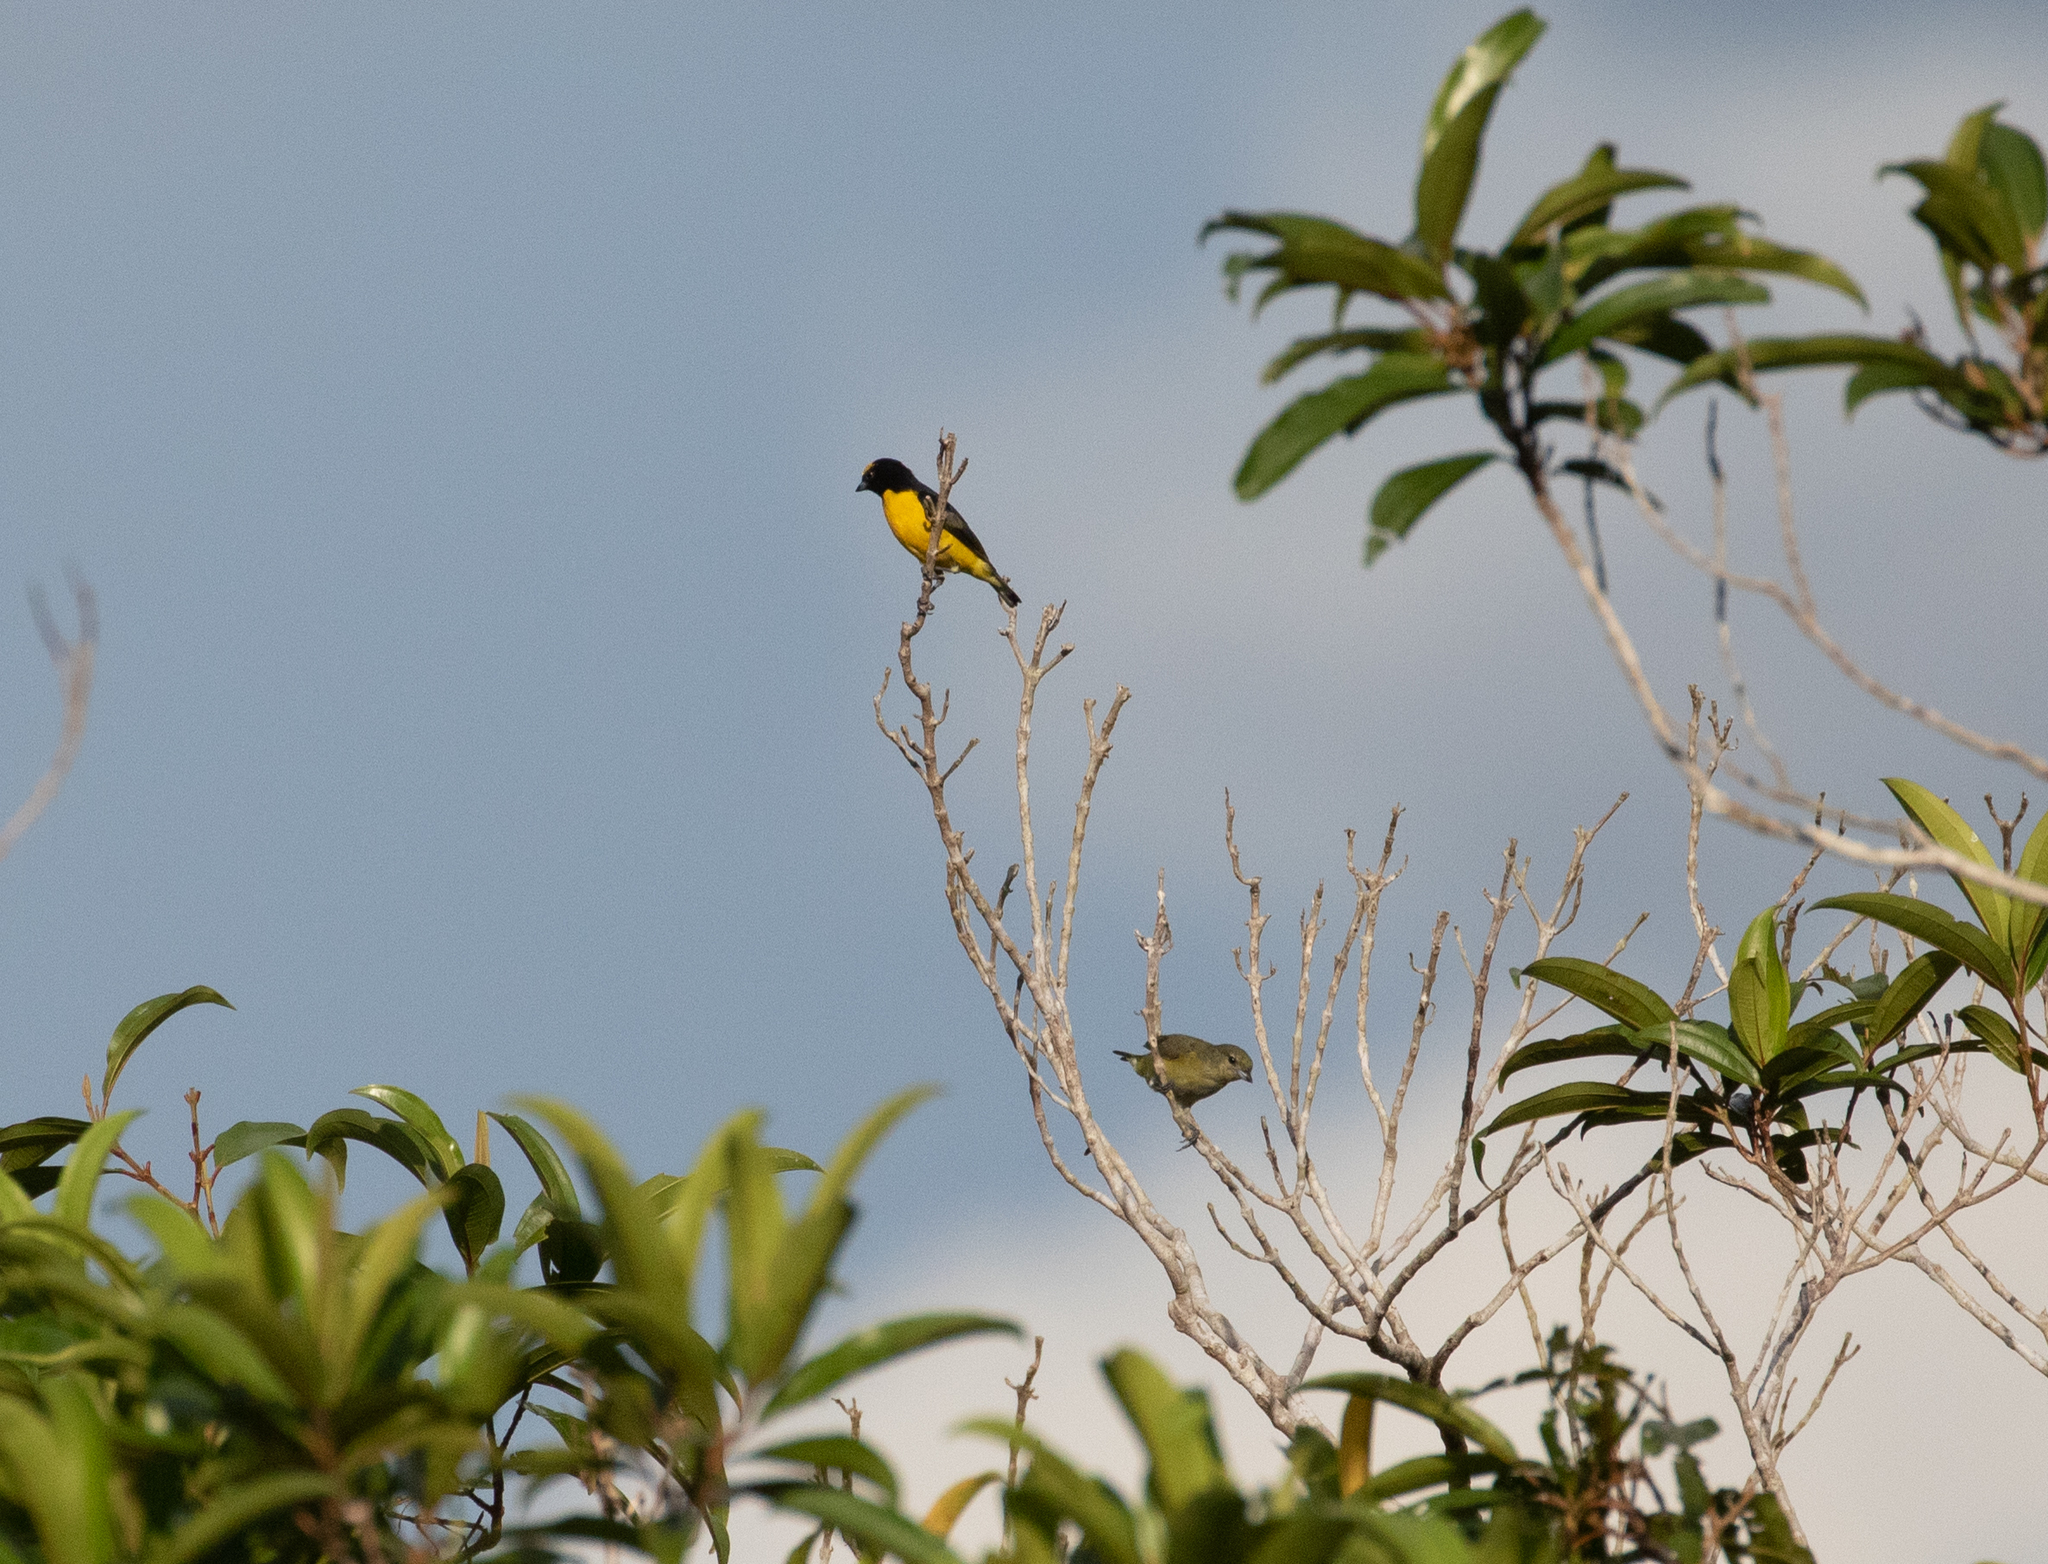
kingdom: Animalia
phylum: Chordata
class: Aves
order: Passeriformes
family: Fringillidae
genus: Euphonia
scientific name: Euphonia chlorotica
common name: Purple-throated euphonia
